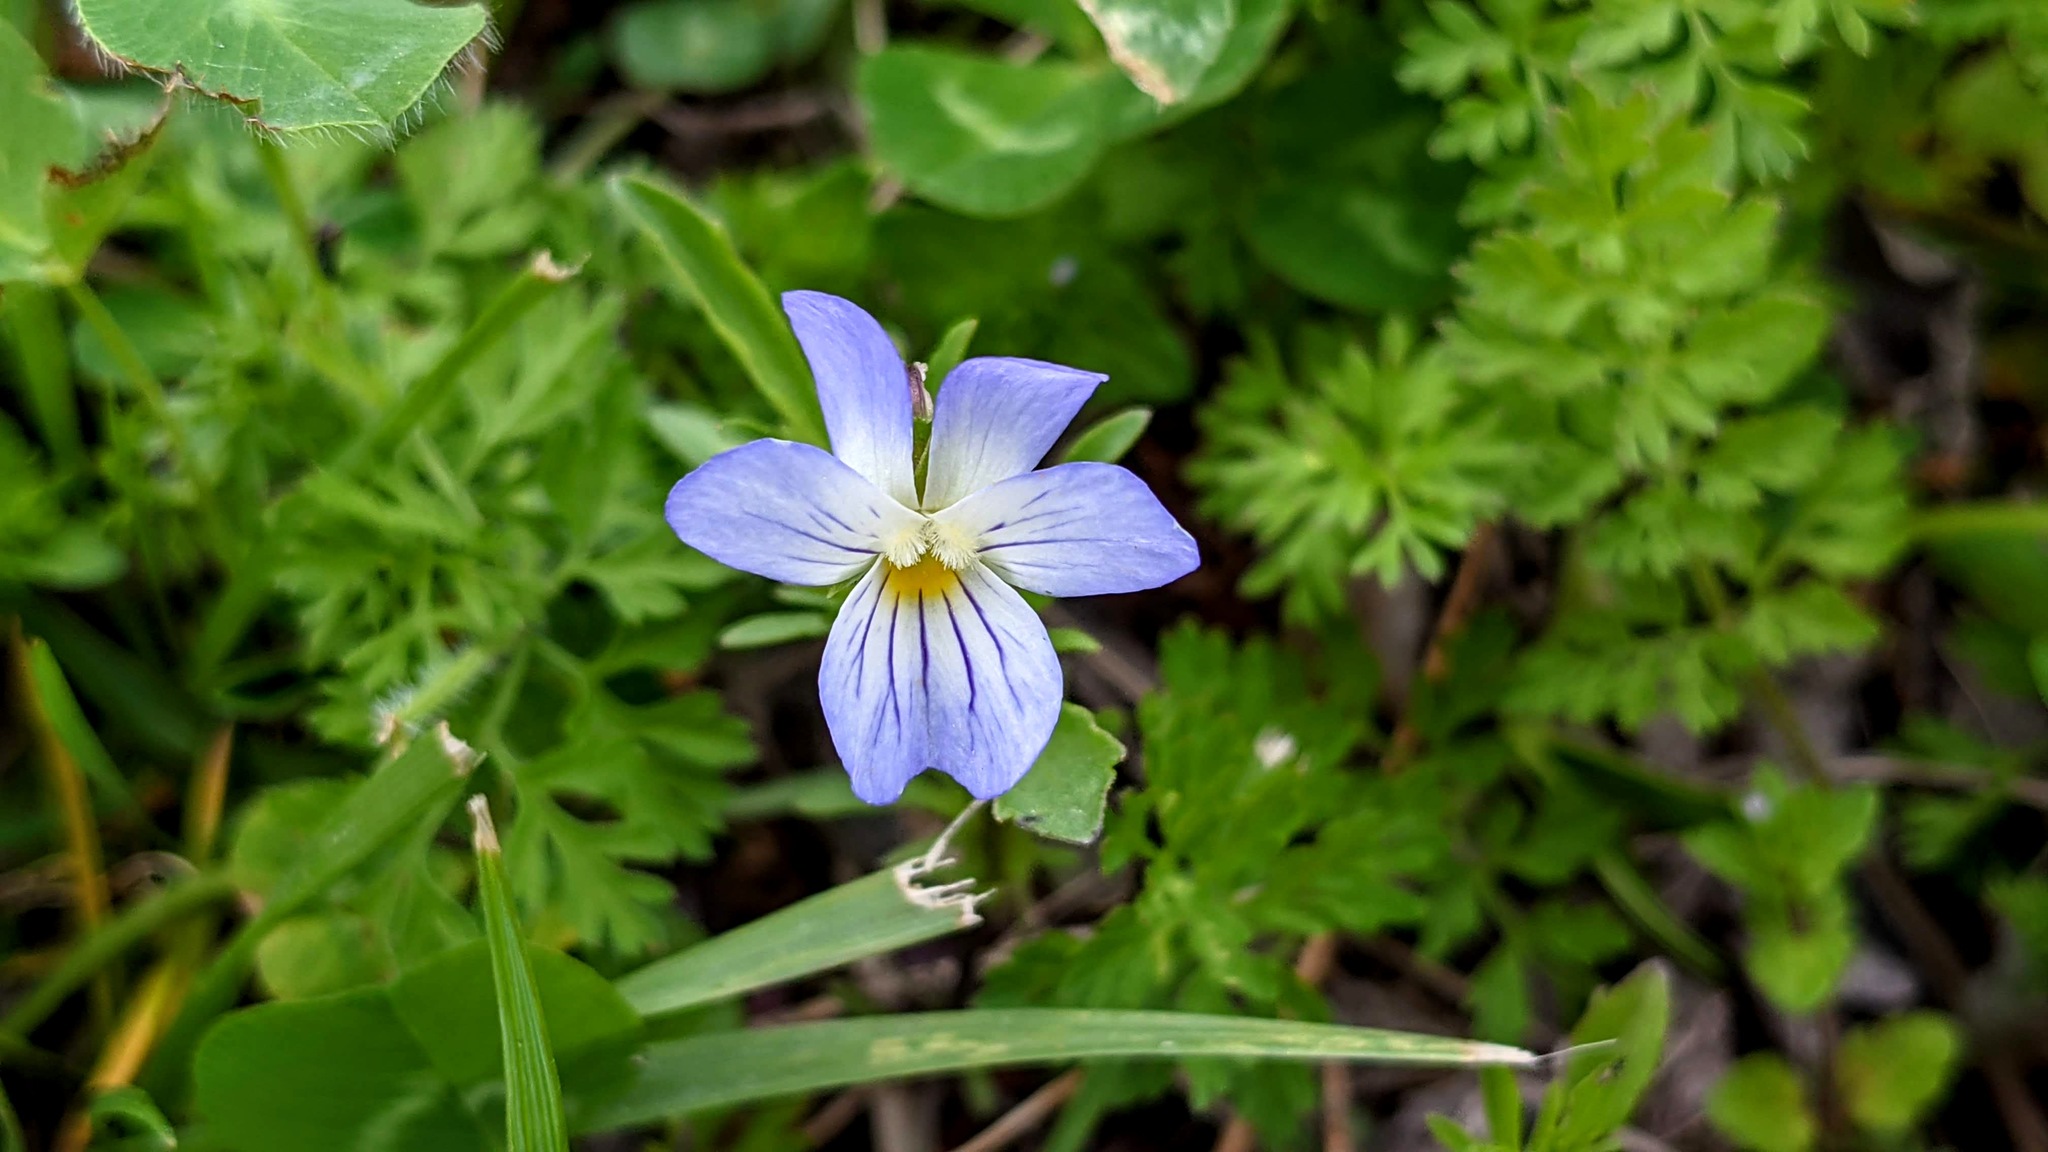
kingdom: Plantae
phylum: Tracheophyta
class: Magnoliopsida
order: Malpighiales
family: Violaceae
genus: Viola
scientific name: Viola rafinesquei
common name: American field pansy
